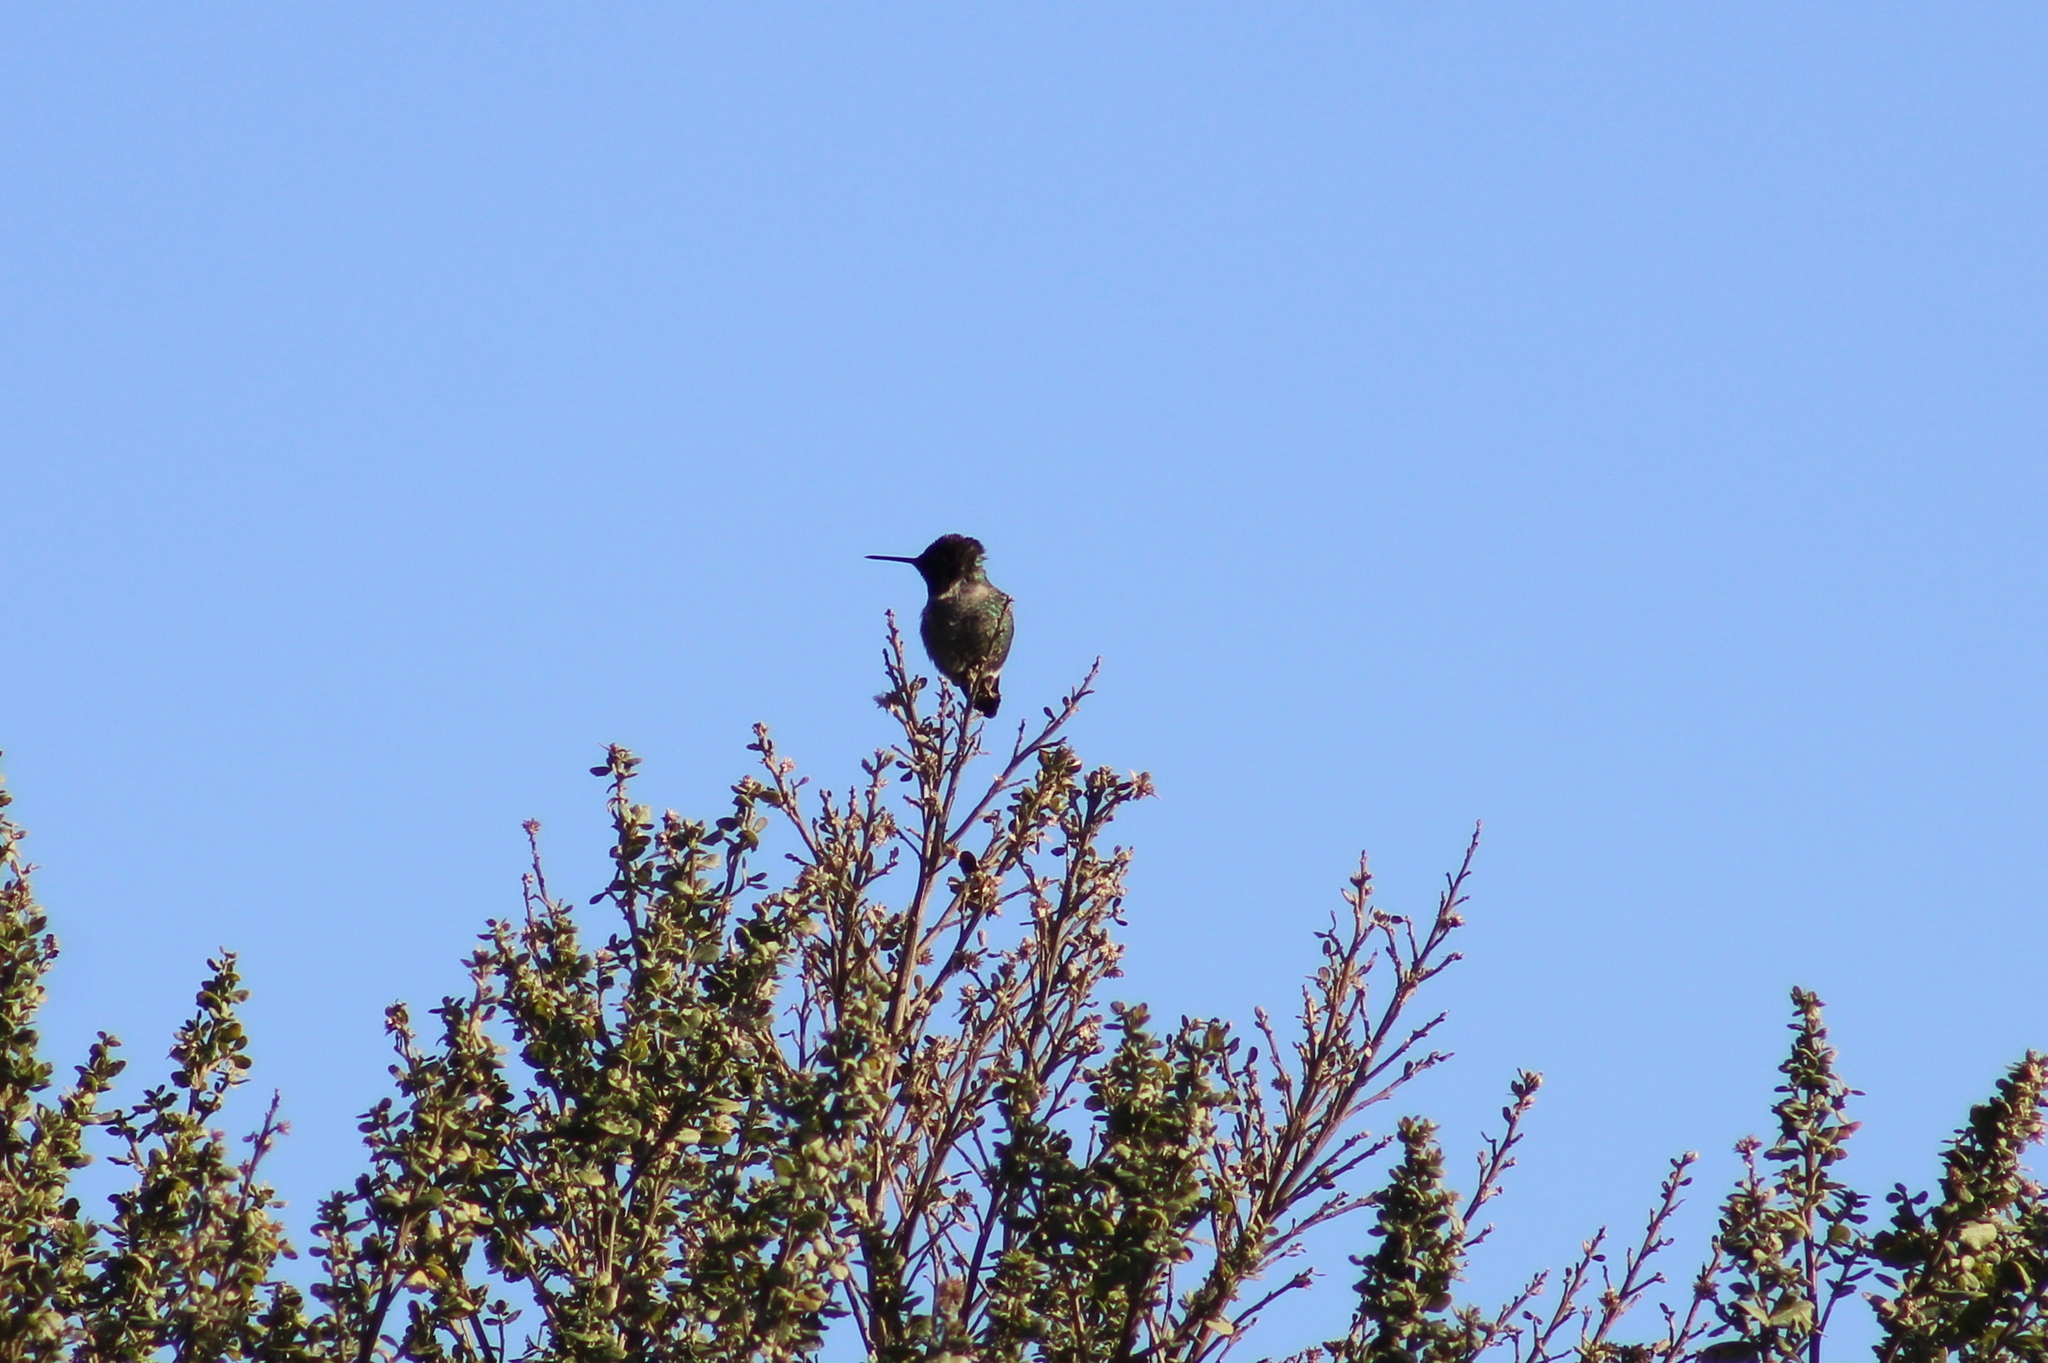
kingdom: Animalia
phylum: Chordata
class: Aves
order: Apodiformes
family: Trochilidae
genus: Calypte
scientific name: Calypte anna
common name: Anna's hummingbird
